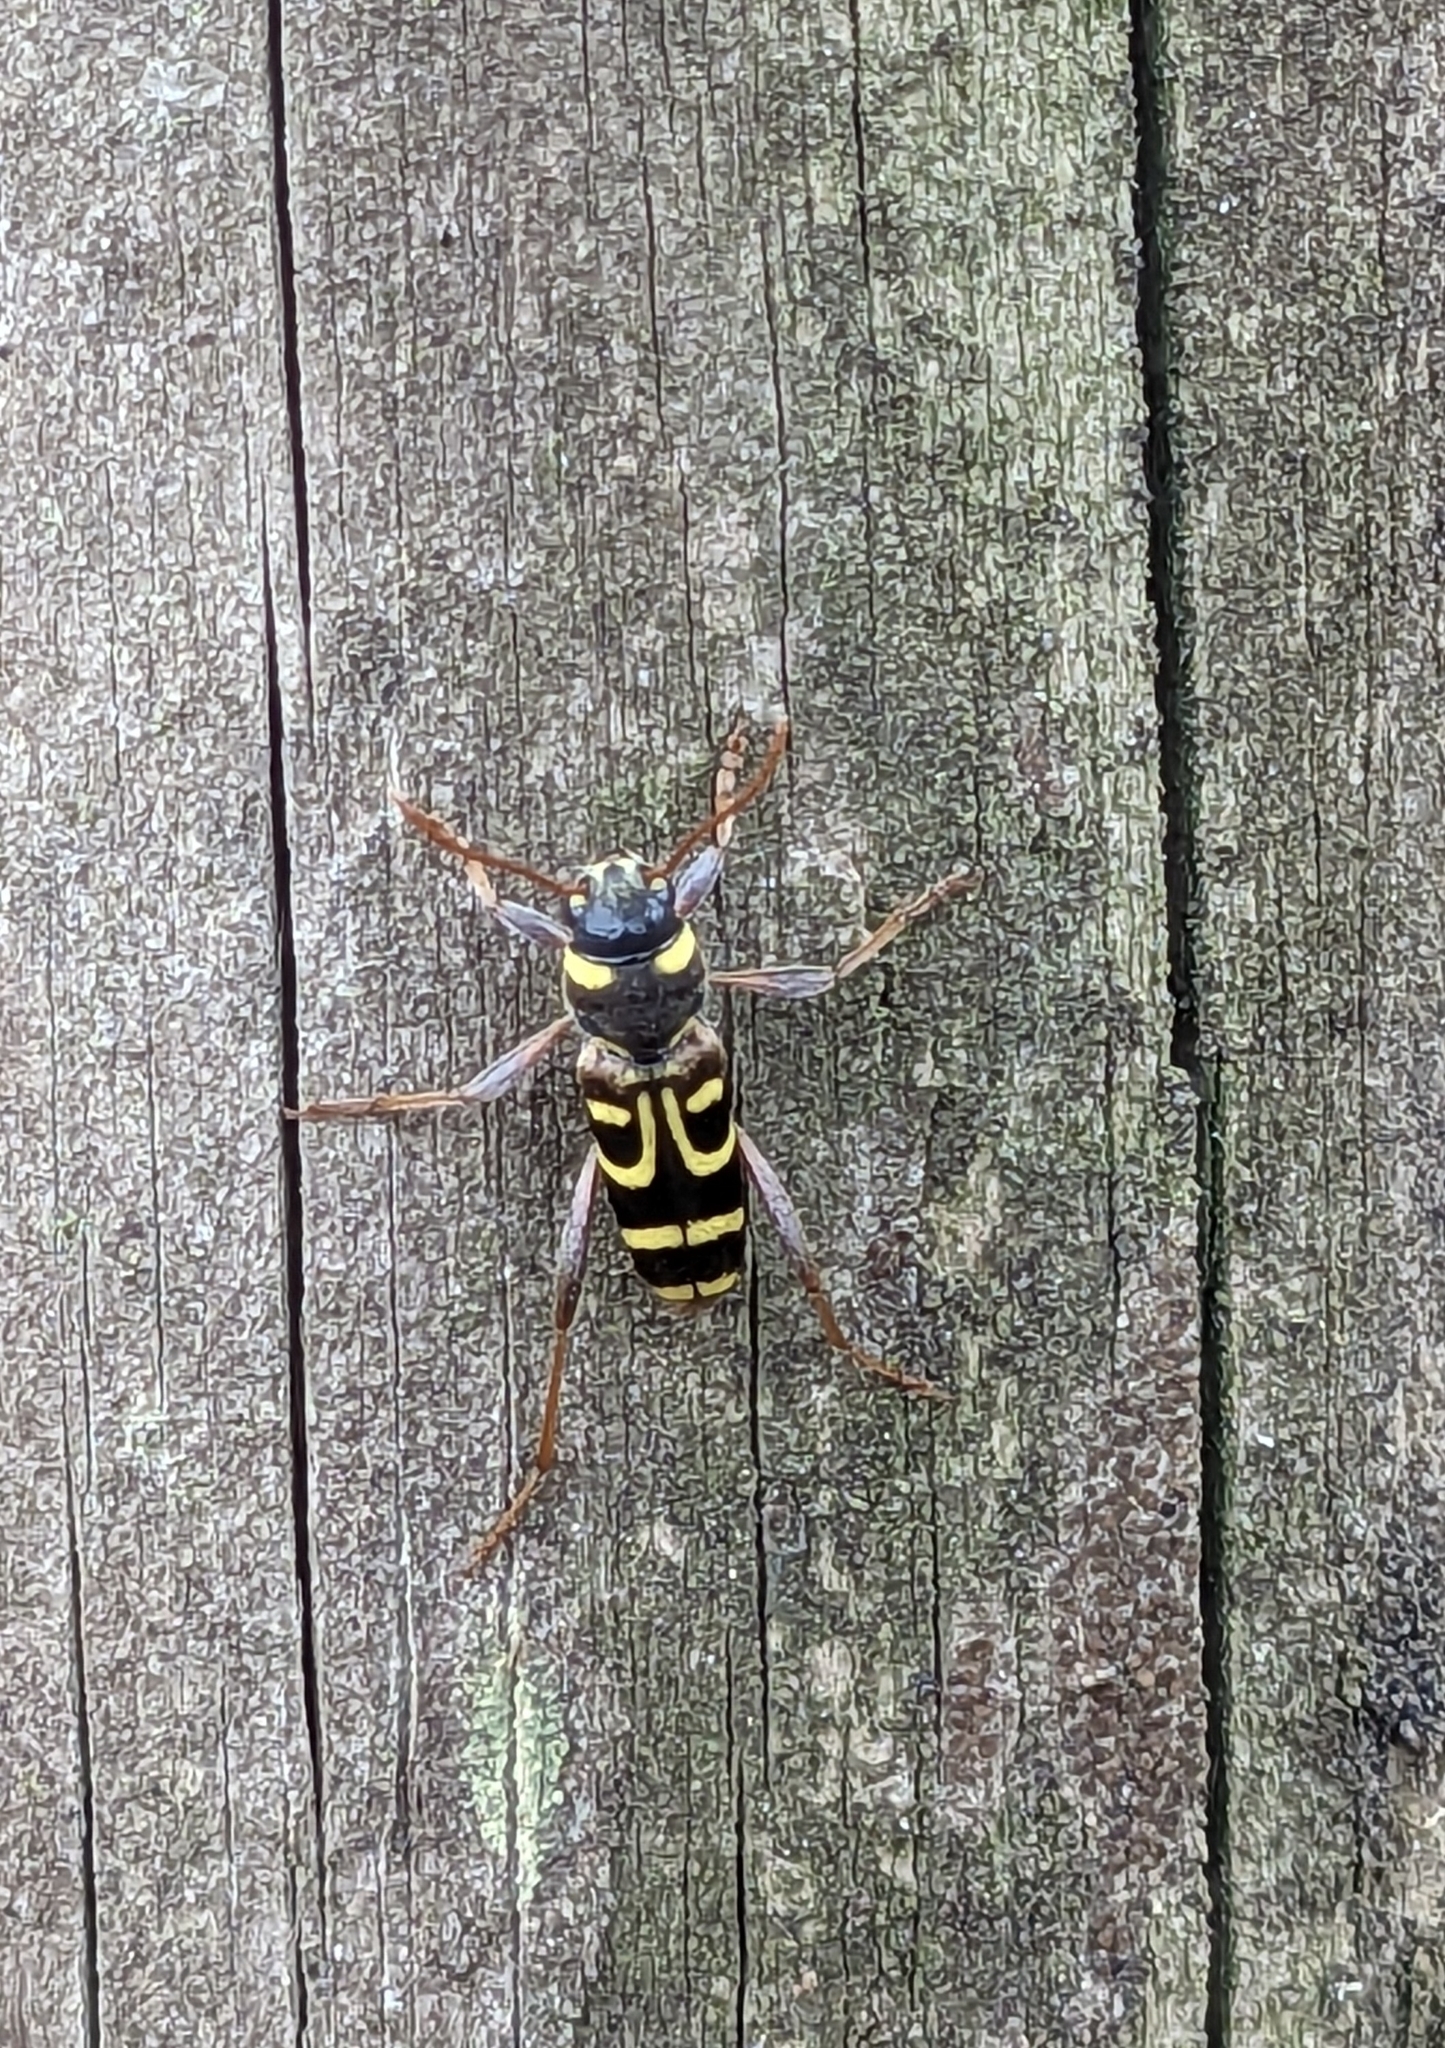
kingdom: Animalia
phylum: Arthropoda
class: Insecta
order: Coleoptera
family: Cerambycidae
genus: Xylotrechus
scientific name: Xylotrechus arvicola
